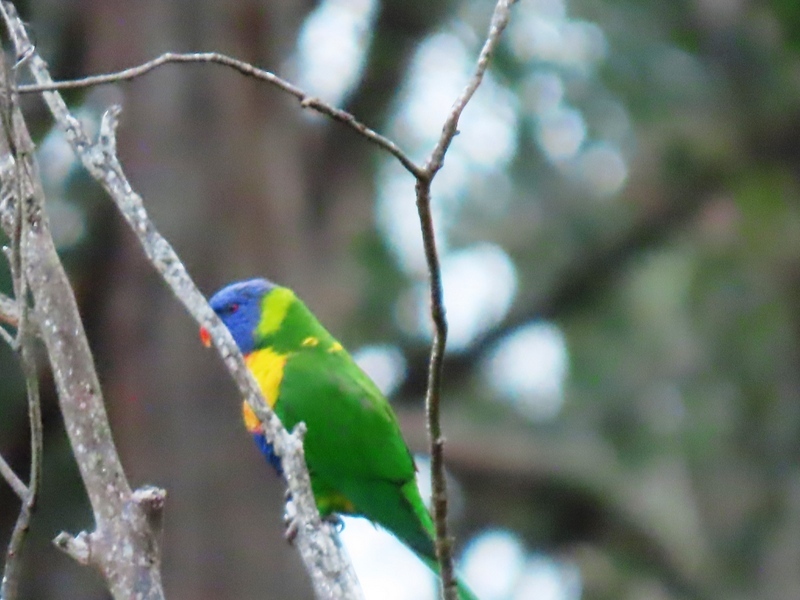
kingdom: Animalia
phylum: Chordata
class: Aves
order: Psittaciformes
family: Psittacidae
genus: Trichoglossus
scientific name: Trichoglossus haematodus
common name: Coconut lorikeet
